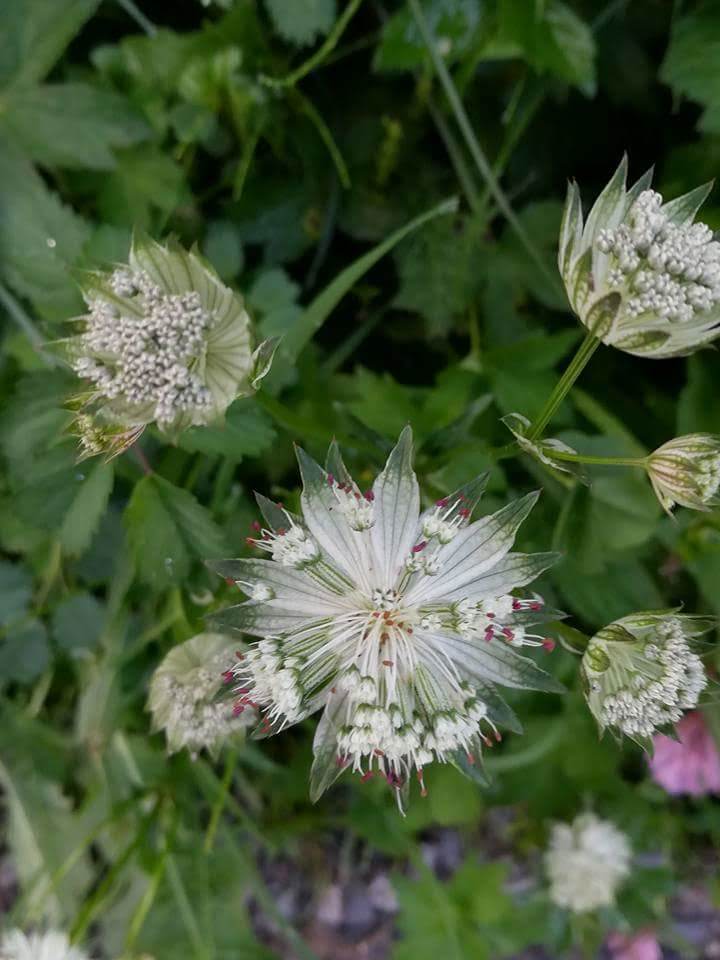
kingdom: Plantae
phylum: Tracheophyta
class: Magnoliopsida
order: Apiales
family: Apiaceae
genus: Astrantia
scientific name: Astrantia major
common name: Greater masterwort
